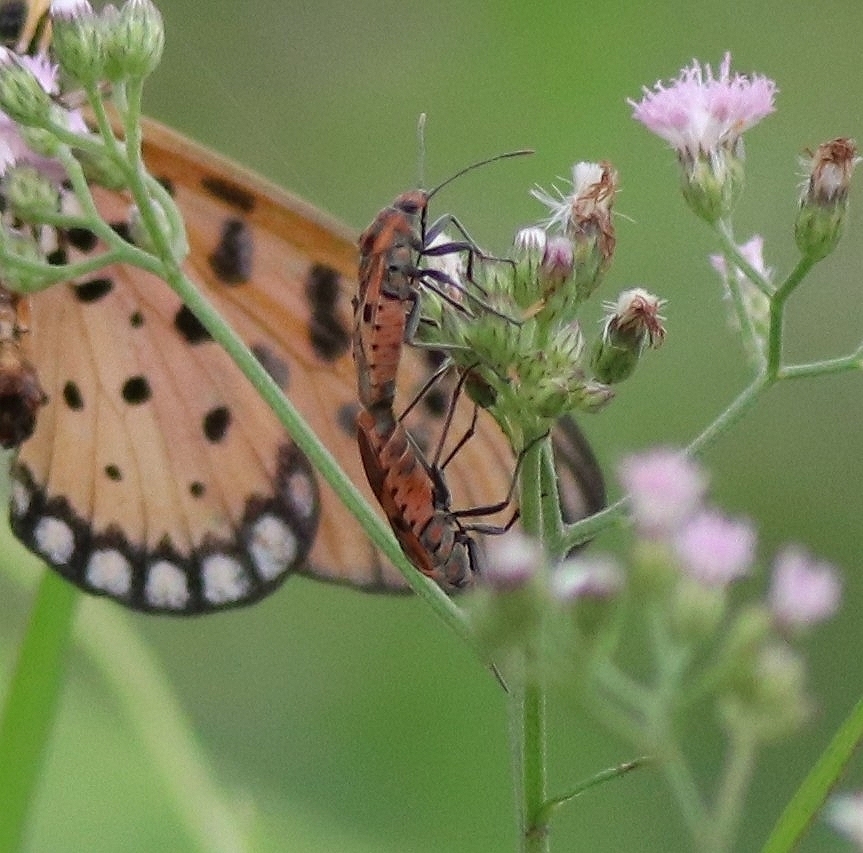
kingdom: Animalia
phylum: Arthropoda
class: Insecta
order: Hemiptera
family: Lygaeidae
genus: Spilostethus
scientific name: Spilostethus hospes
